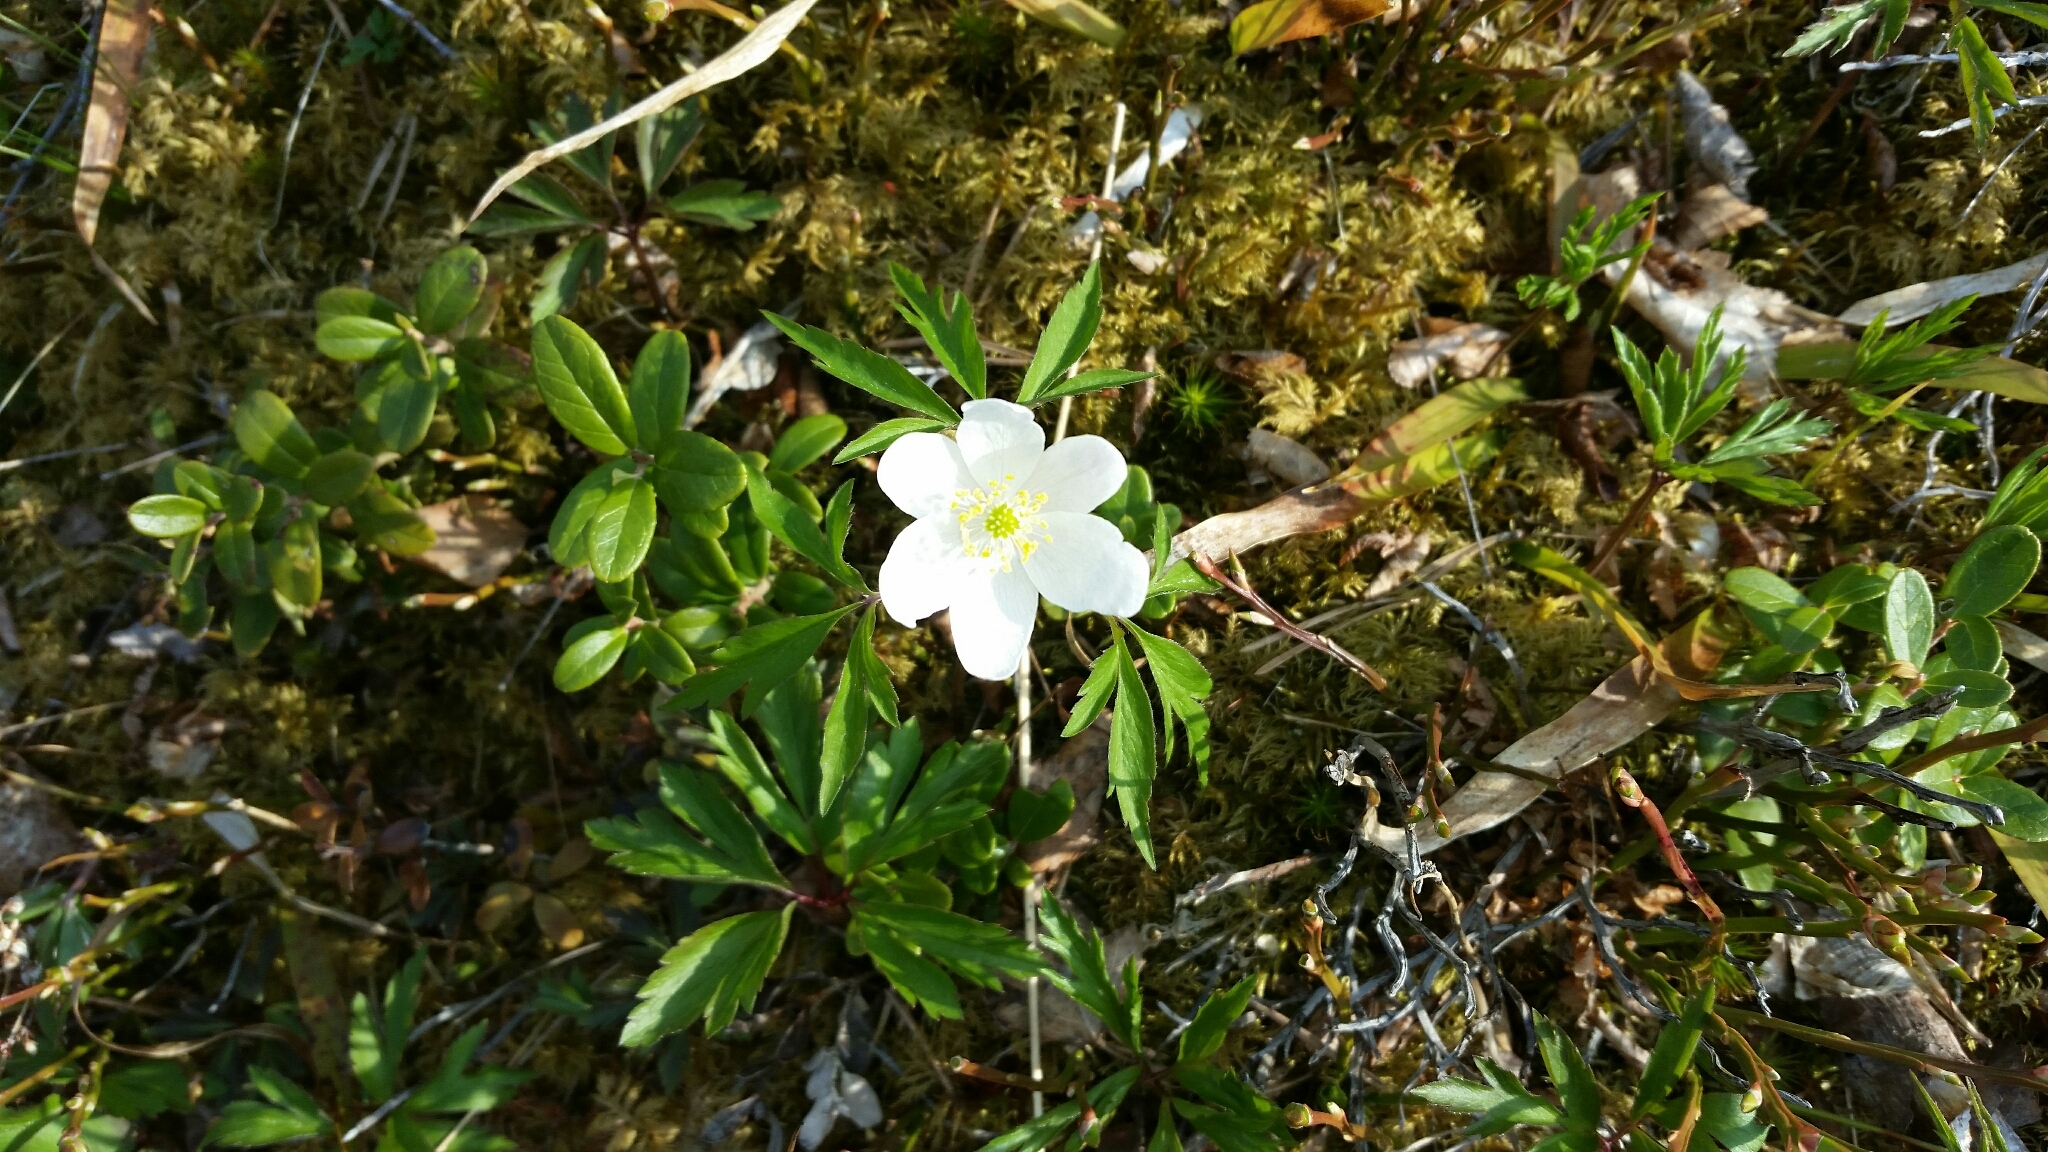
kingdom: Plantae
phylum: Tracheophyta
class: Magnoliopsida
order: Ranunculales
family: Ranunculaceae
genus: Anemone
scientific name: Anemone nemorosa
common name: Wood anemone
